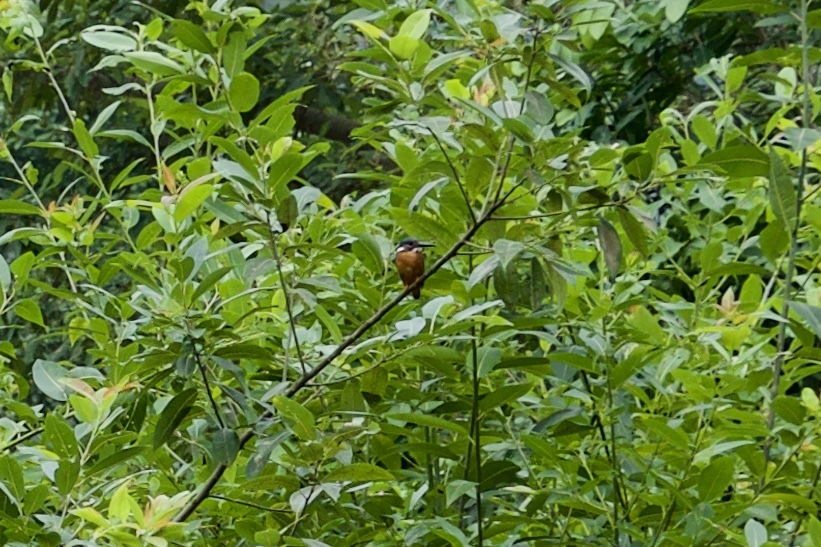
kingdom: Animalia
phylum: Chordata
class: Aves
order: Coraciiformes
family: Alcedinidae
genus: Alcedo
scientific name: Alcedo atthis
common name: Common kingfisher
